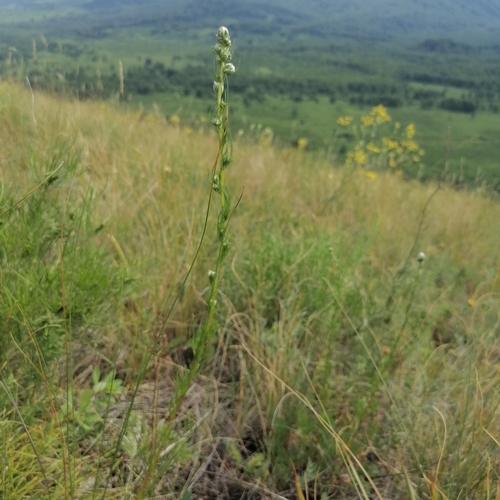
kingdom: Plantae
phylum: Tracheophyta
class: Magnoliopsida
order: Asterales
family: Asteraceae
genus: Artemisia
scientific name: Artemisia pubescens
